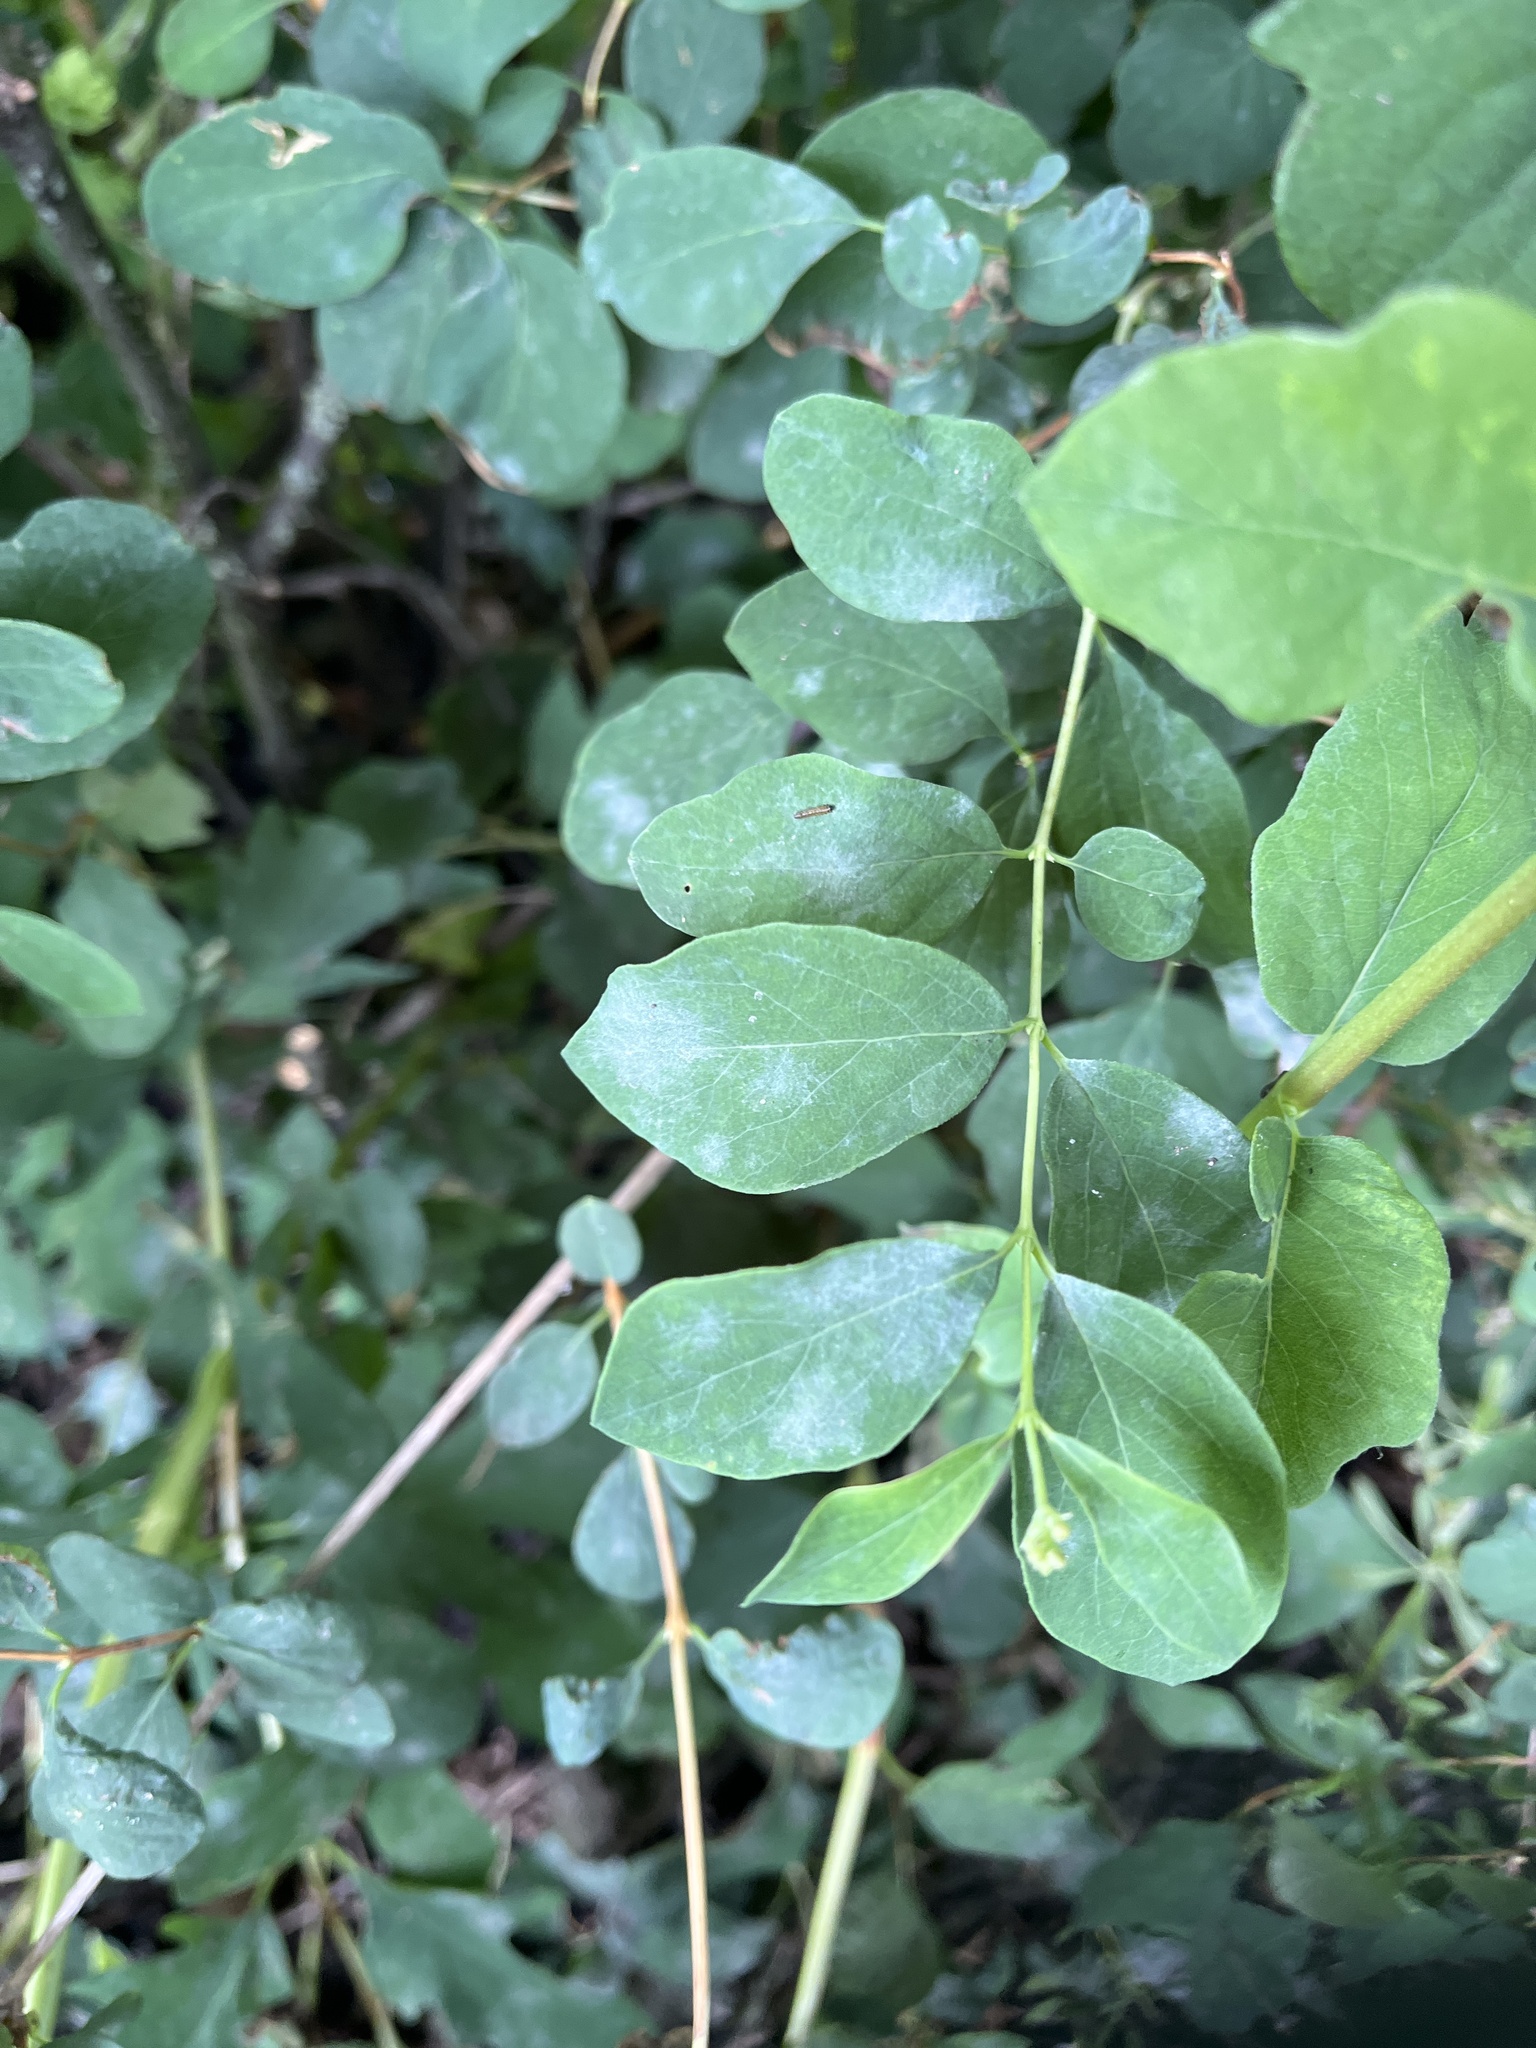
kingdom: Fungi
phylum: Ascomycota
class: Leotiomycetes
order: Helotiales
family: Erysiphaceae
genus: Erysiphe
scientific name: Erysiphe symphoricarpi
